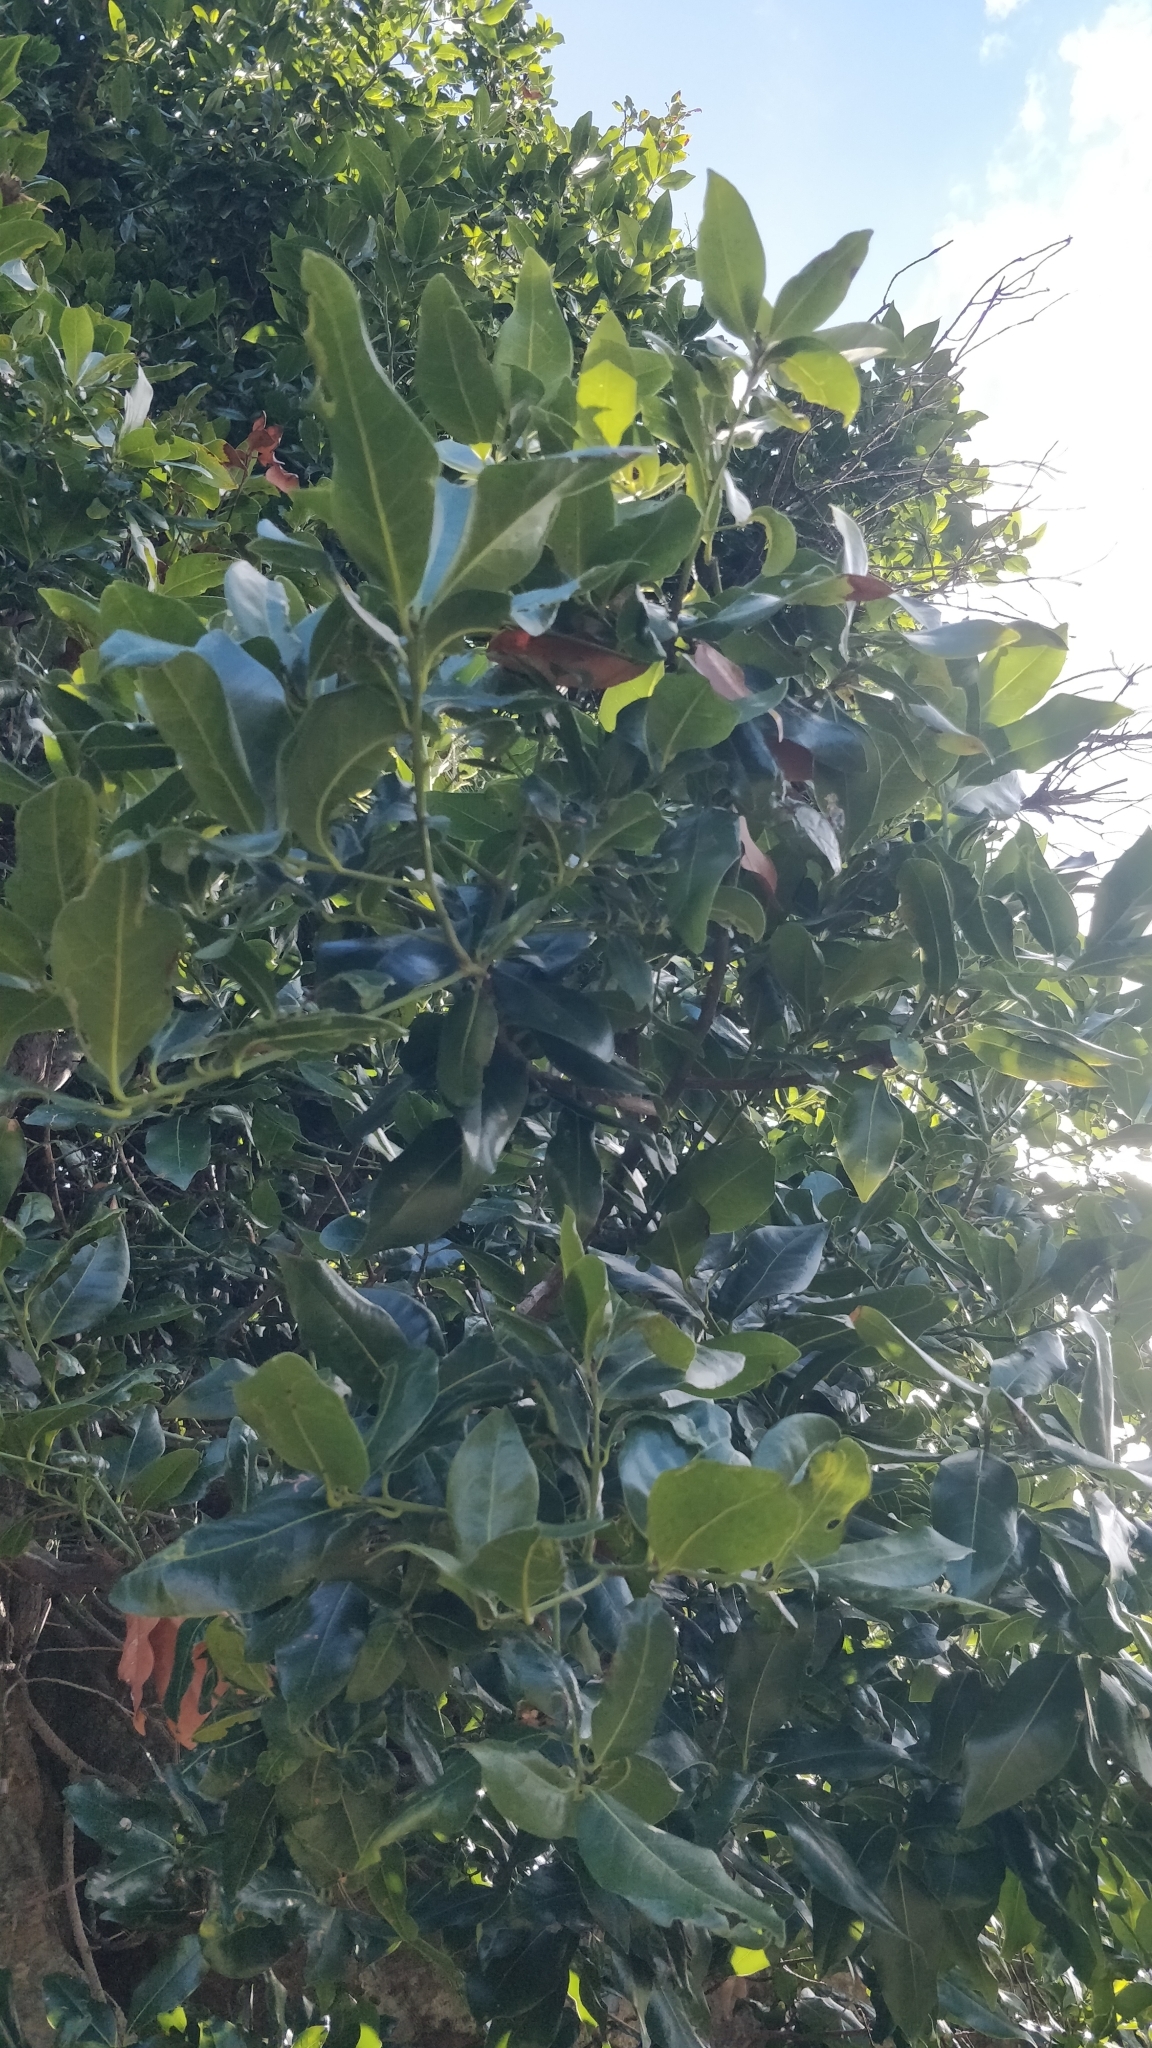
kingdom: Plantae
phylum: Tracheophyta
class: Magnoliopsida
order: Laurales
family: Lauraceae
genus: Apollonias
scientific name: Apollonias barbujana
